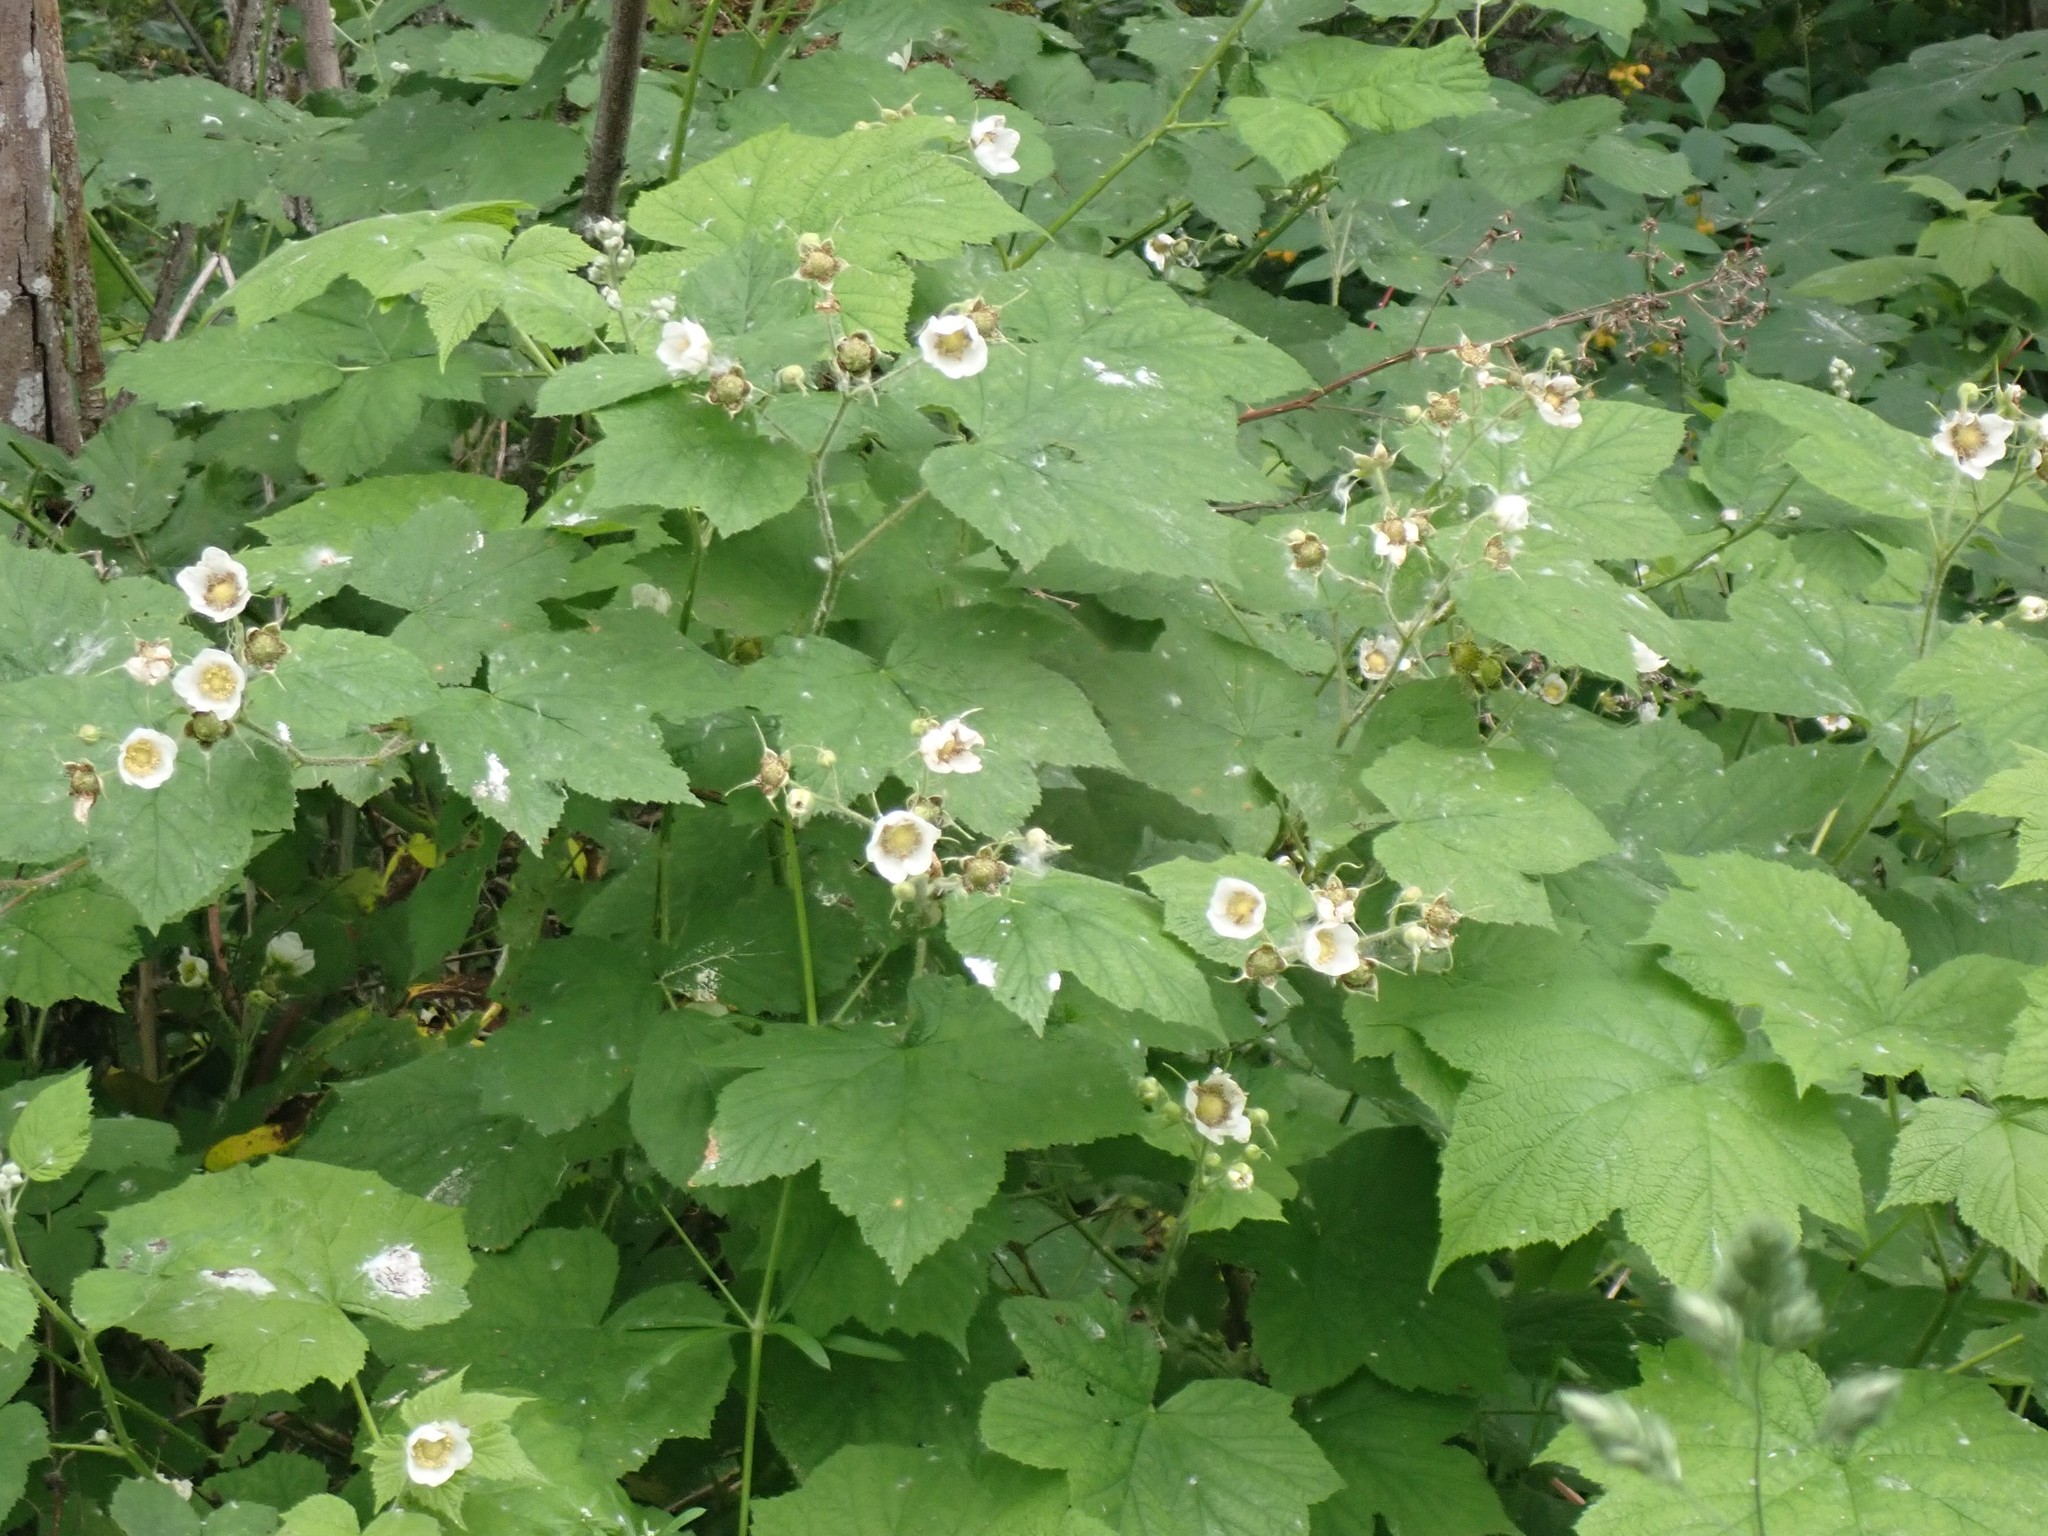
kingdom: Plantae
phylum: Tracheophyta
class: Magnoliopsida
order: Rosales
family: Rosaceae
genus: Rubus
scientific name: Rubus parviflorus
